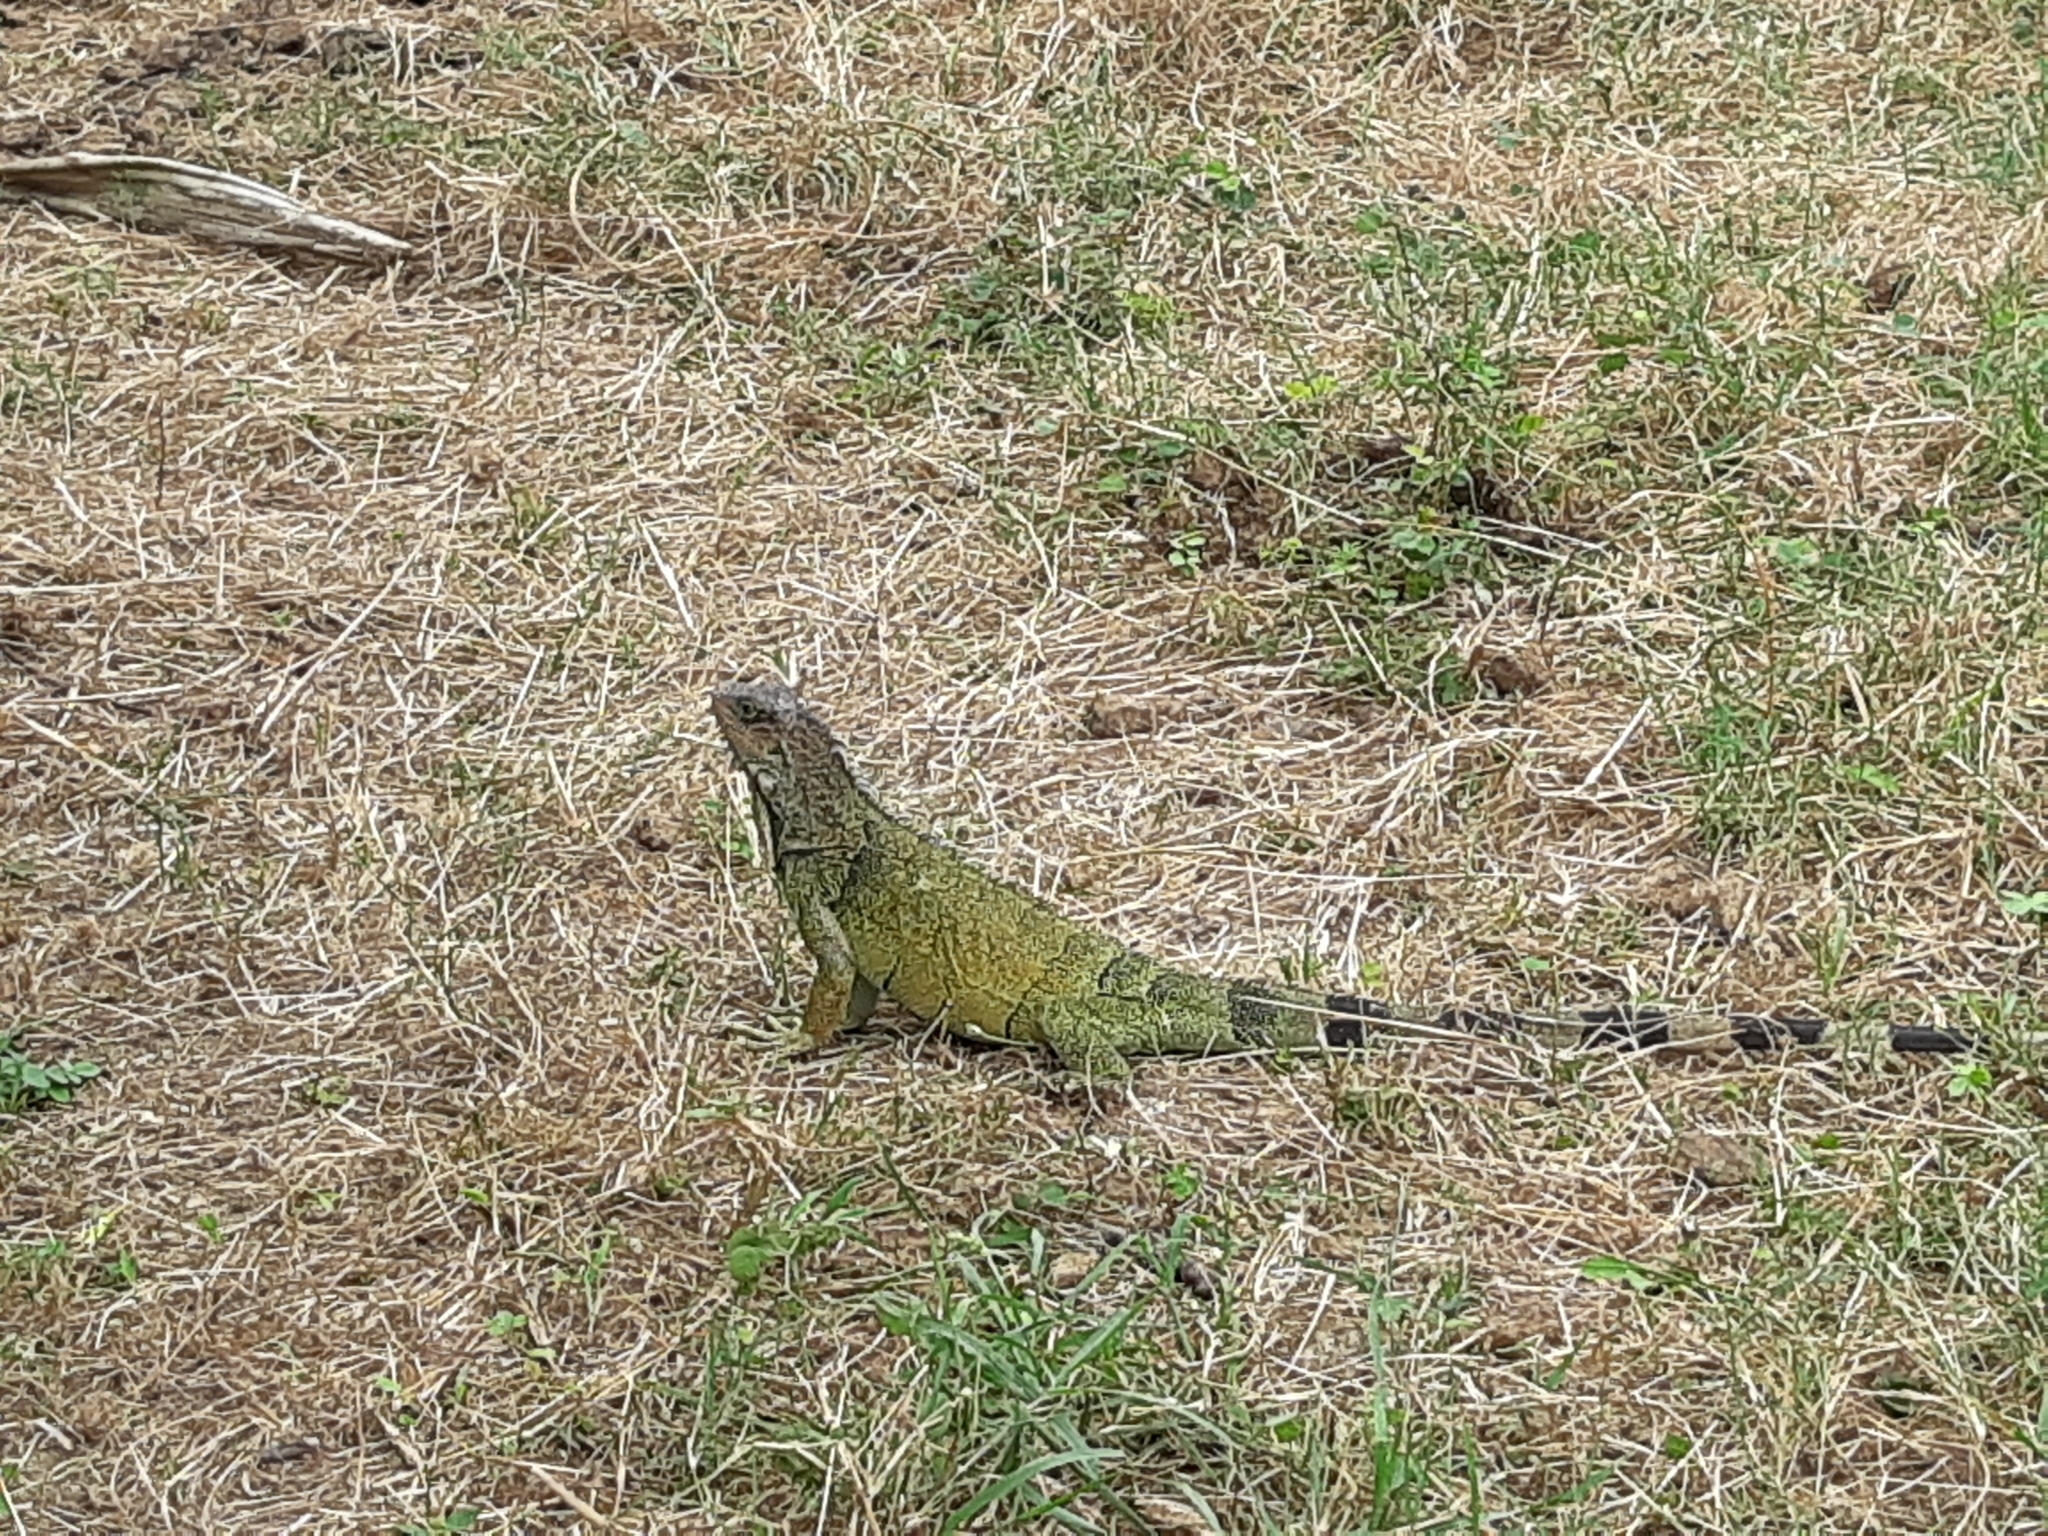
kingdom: Animalia
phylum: Chordata
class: Squamata
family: Iguanidae
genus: Iguana
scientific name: Iguana iguana
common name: Green iguana
